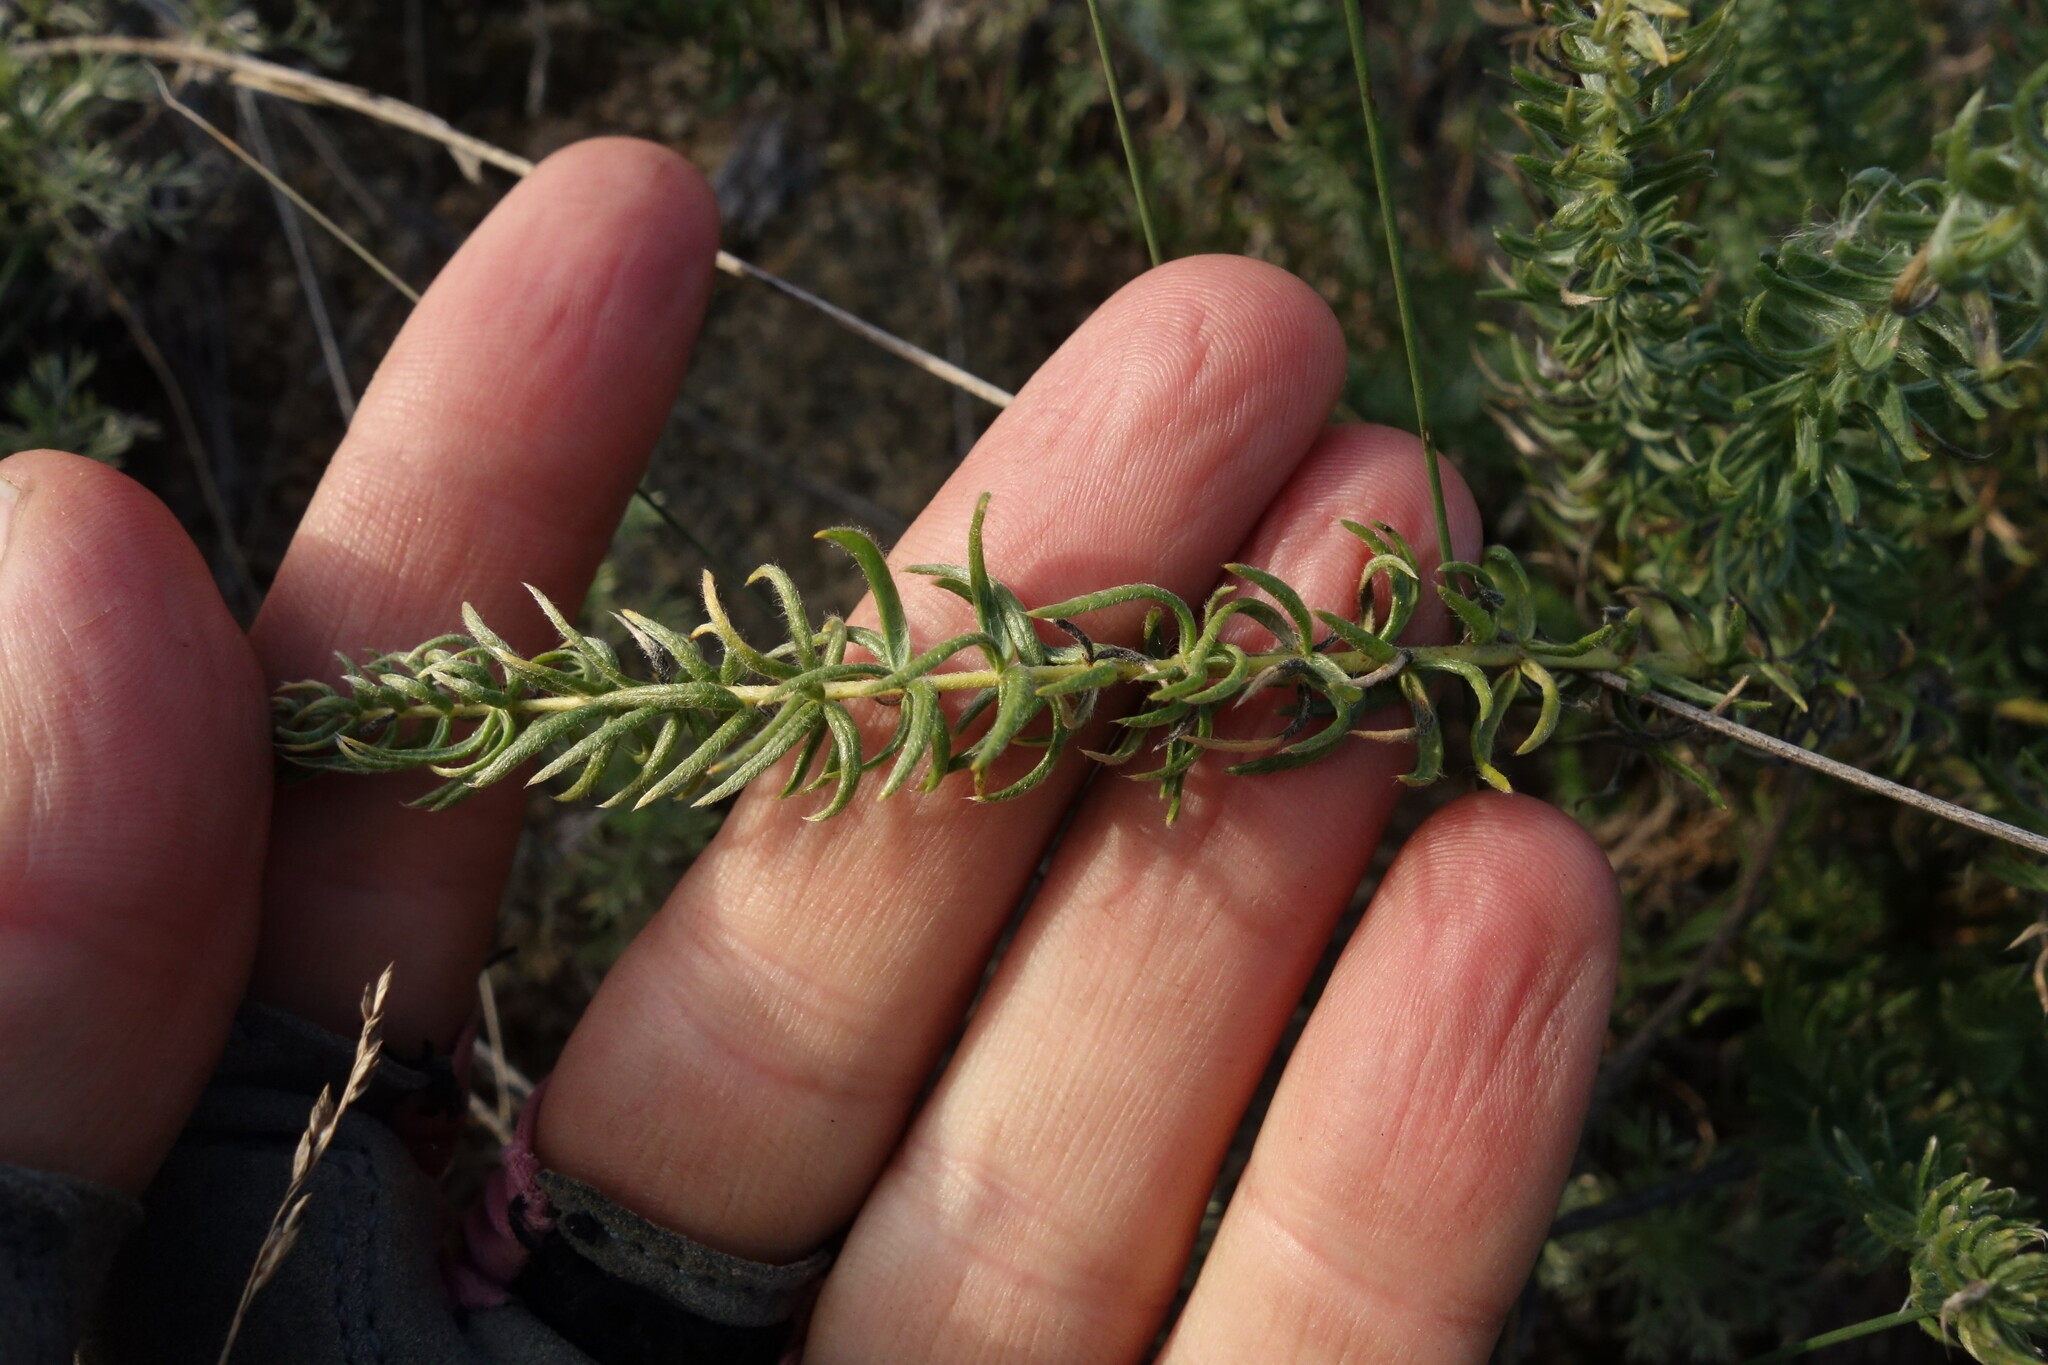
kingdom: Plantae
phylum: Tracheophyta
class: Magnoliopsida
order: Fabales
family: Fabaceae
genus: Oxytropis
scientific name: Oxytropis myriophylla
